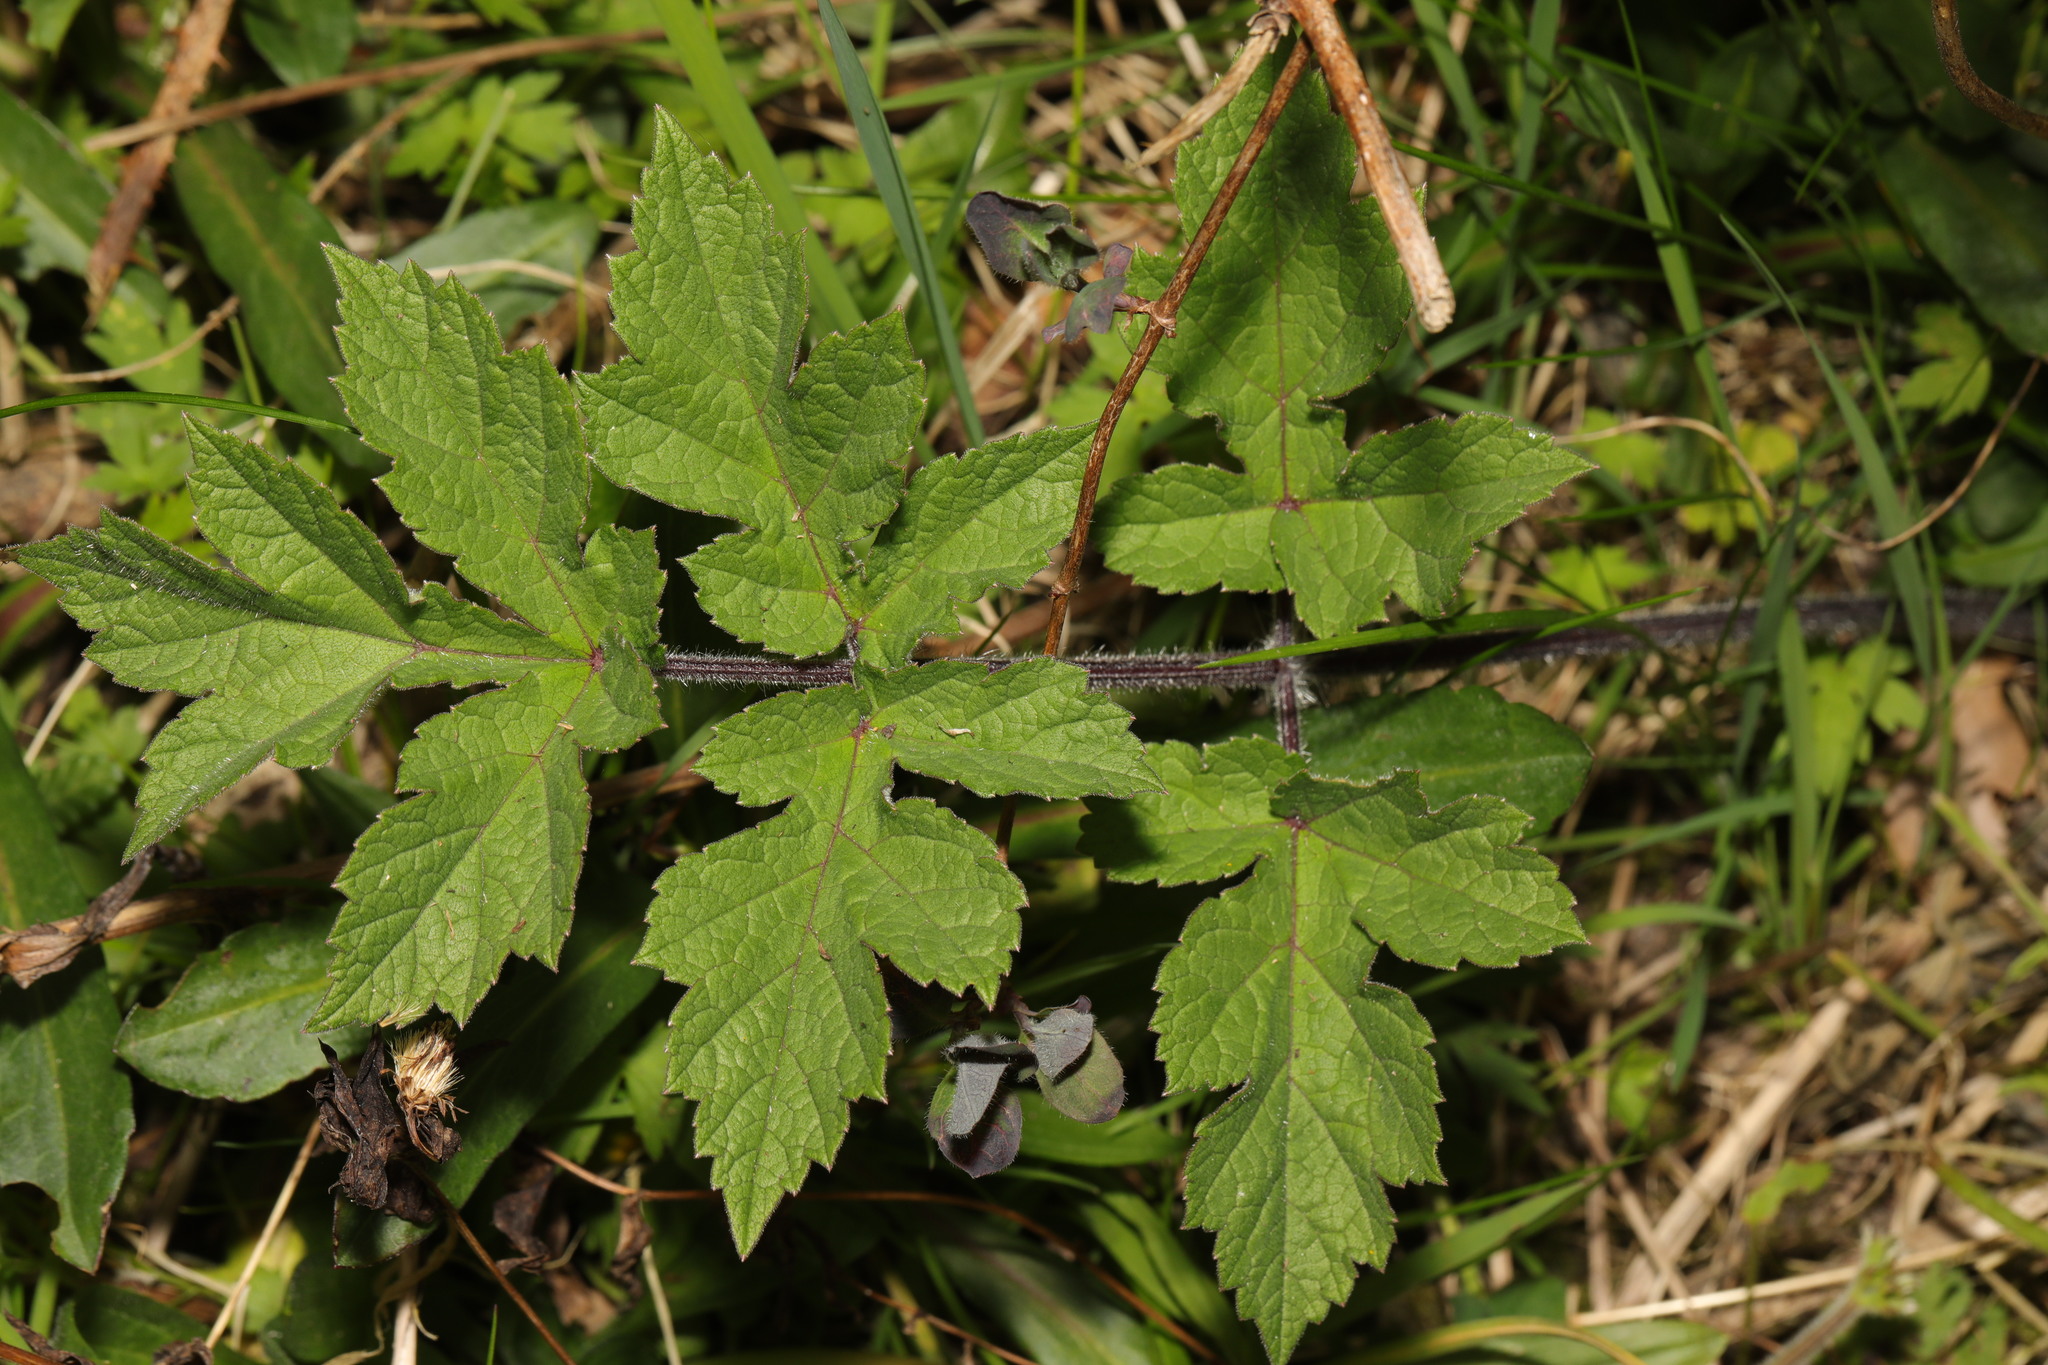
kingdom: Plantae
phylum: Tracheophyta
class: Magnoliopsida
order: Apiales
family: Apiaceae
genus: Heracleum
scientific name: Heracleum sphondylium
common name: Hogweed
